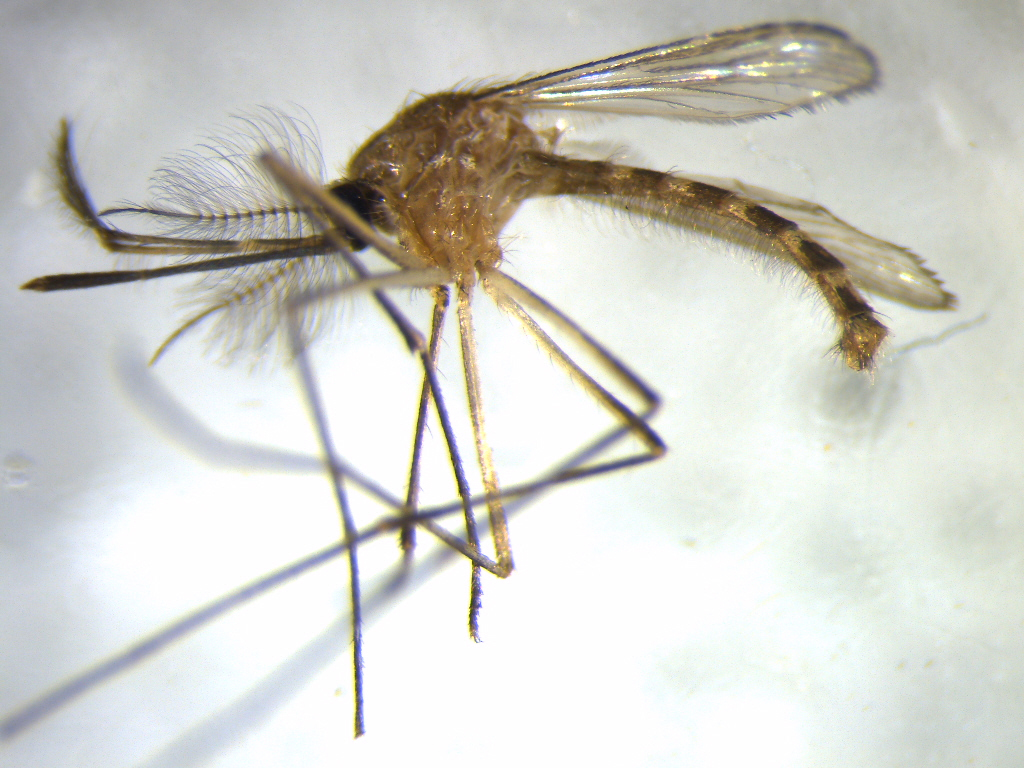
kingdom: Animalia
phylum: Arthropoda
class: Insecta
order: Diptera
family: Culicidae
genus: Culex
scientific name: Culex quinquefasciatus
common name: Southern house mosquito
